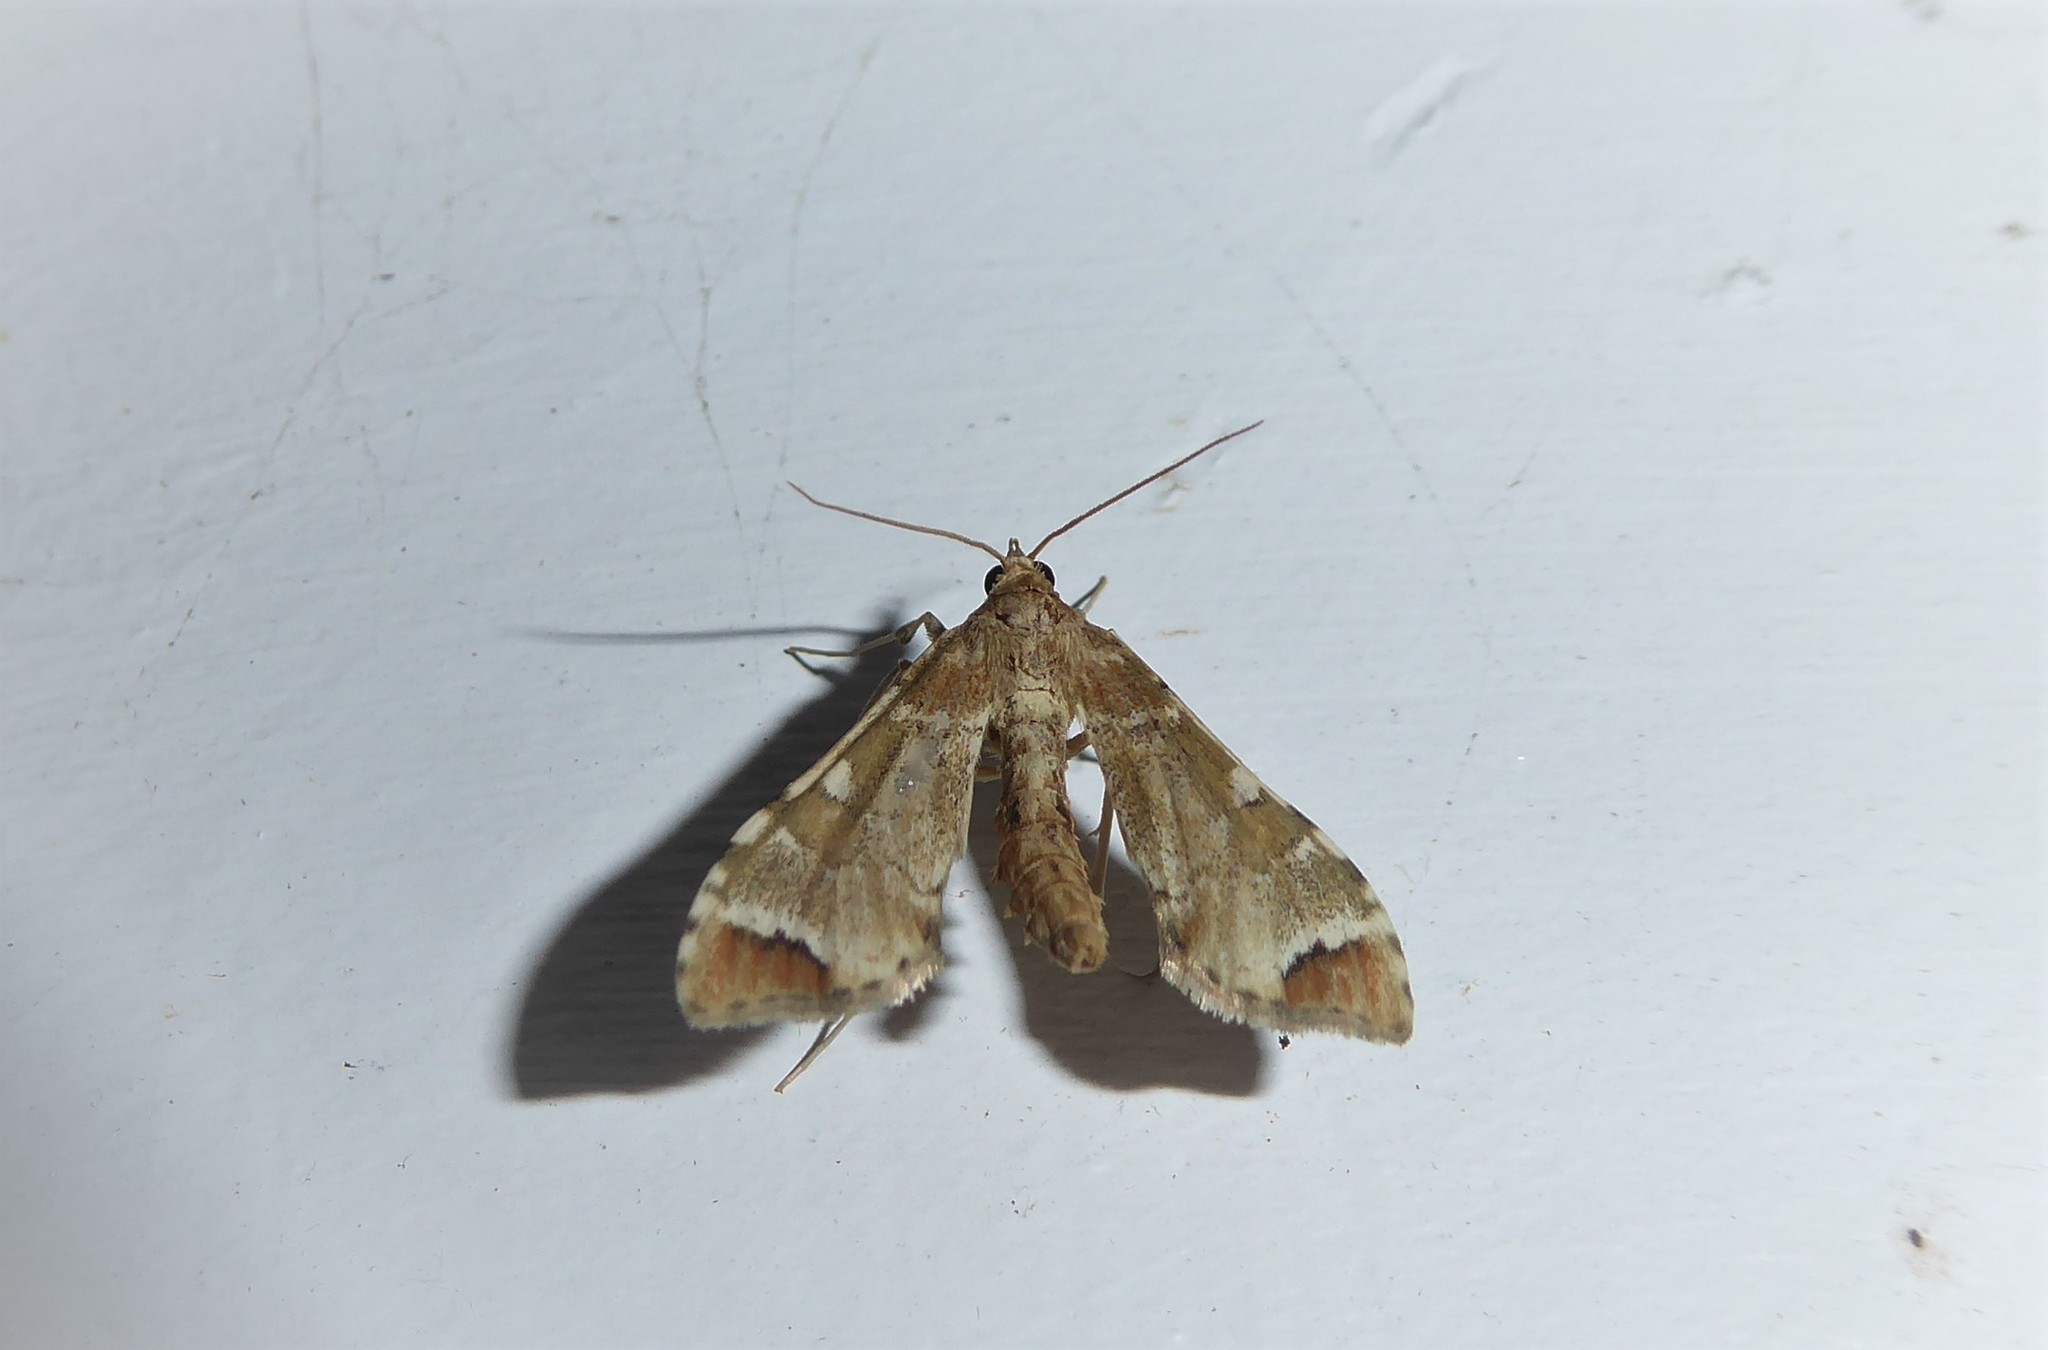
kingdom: Animalia
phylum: Arthropoda
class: Insecta
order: Lepidoptera
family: Crambidae
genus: Sceliodes
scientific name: Sceliodes cordalis
